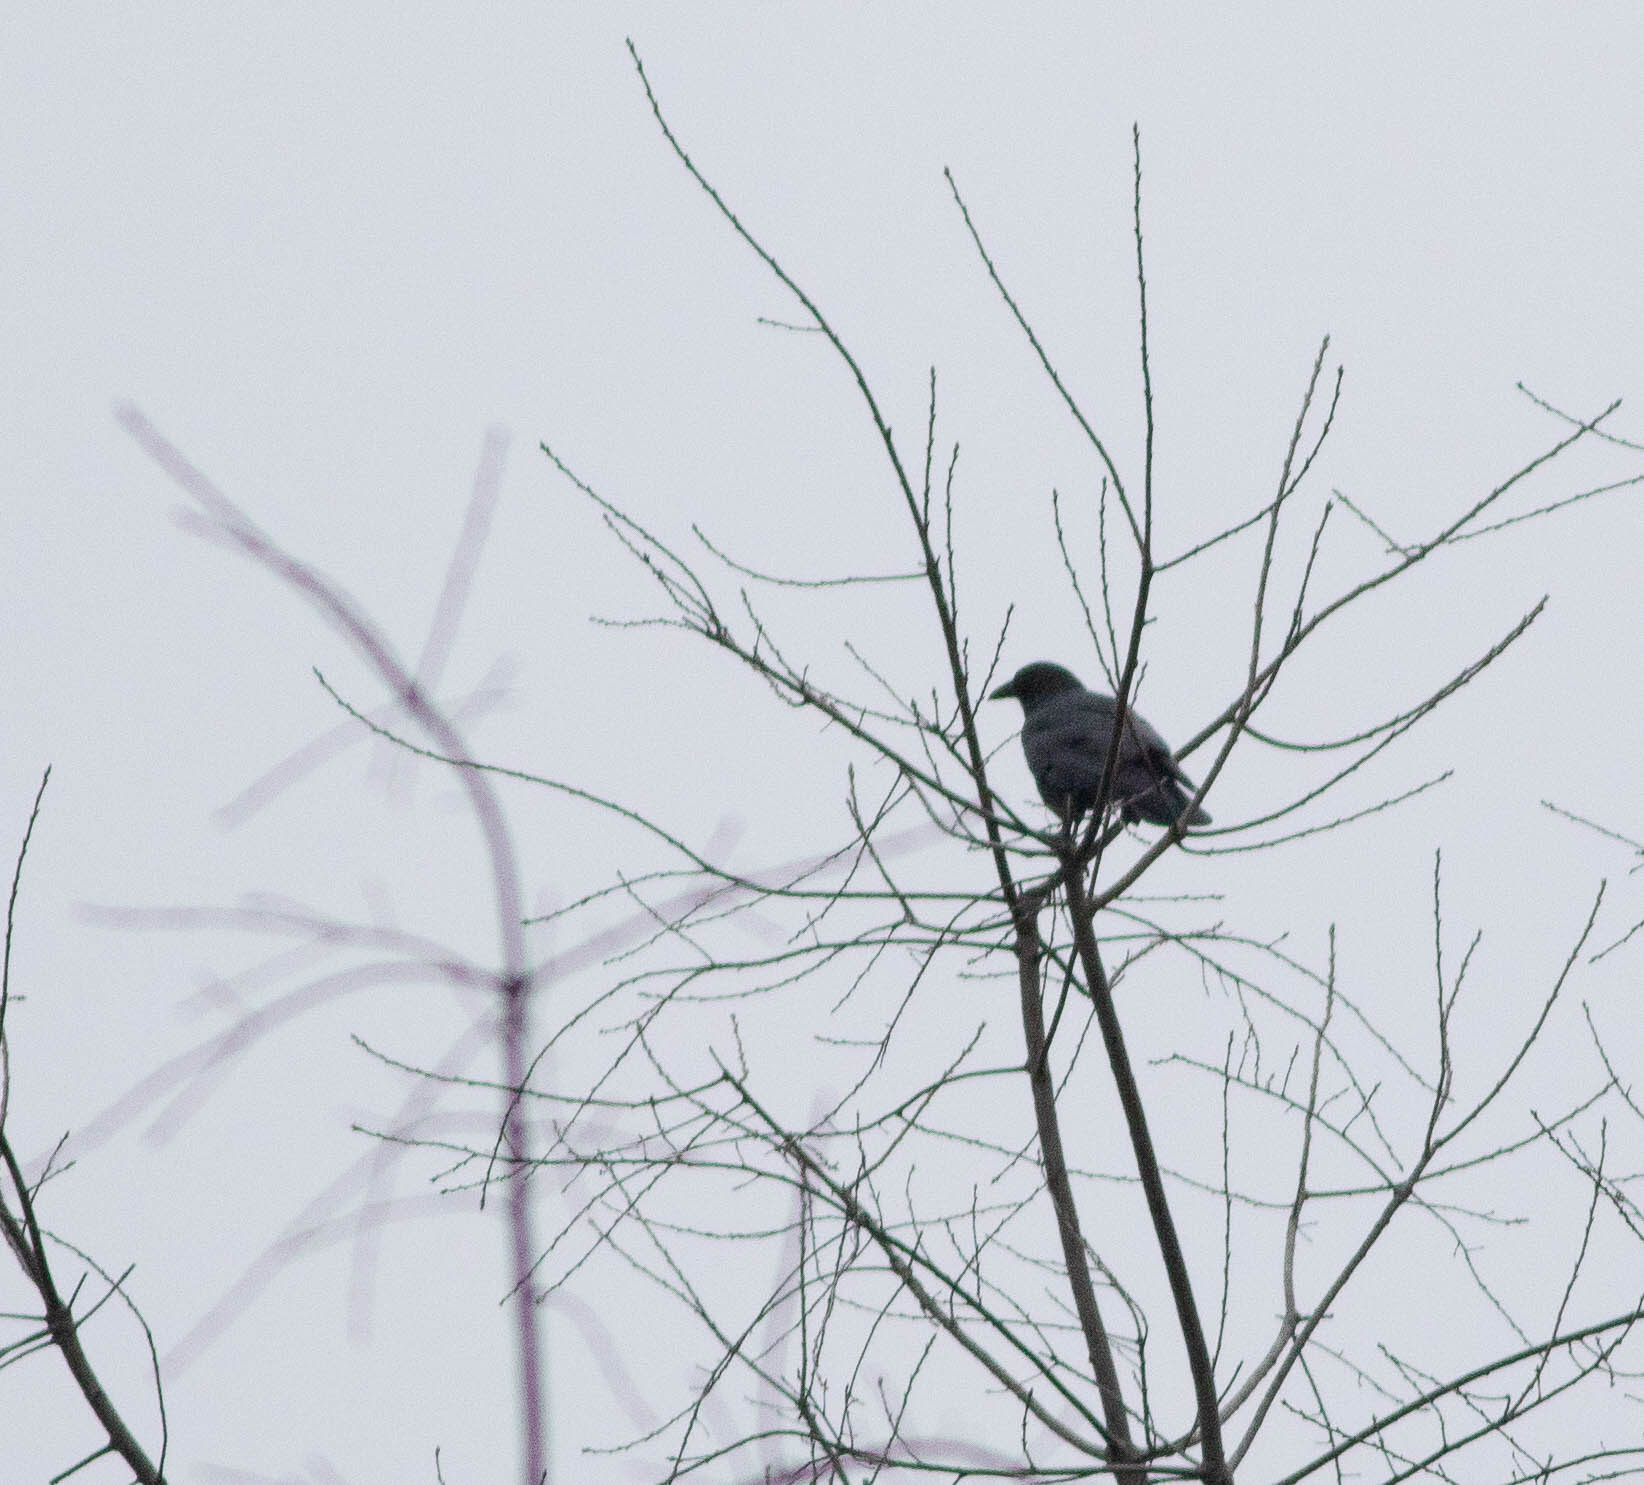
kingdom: Animalia
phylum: Chordata
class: Aves
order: Passeriformes
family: Corvidae
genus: Corvus
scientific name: Corvus brachyrhynchos
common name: American crow
